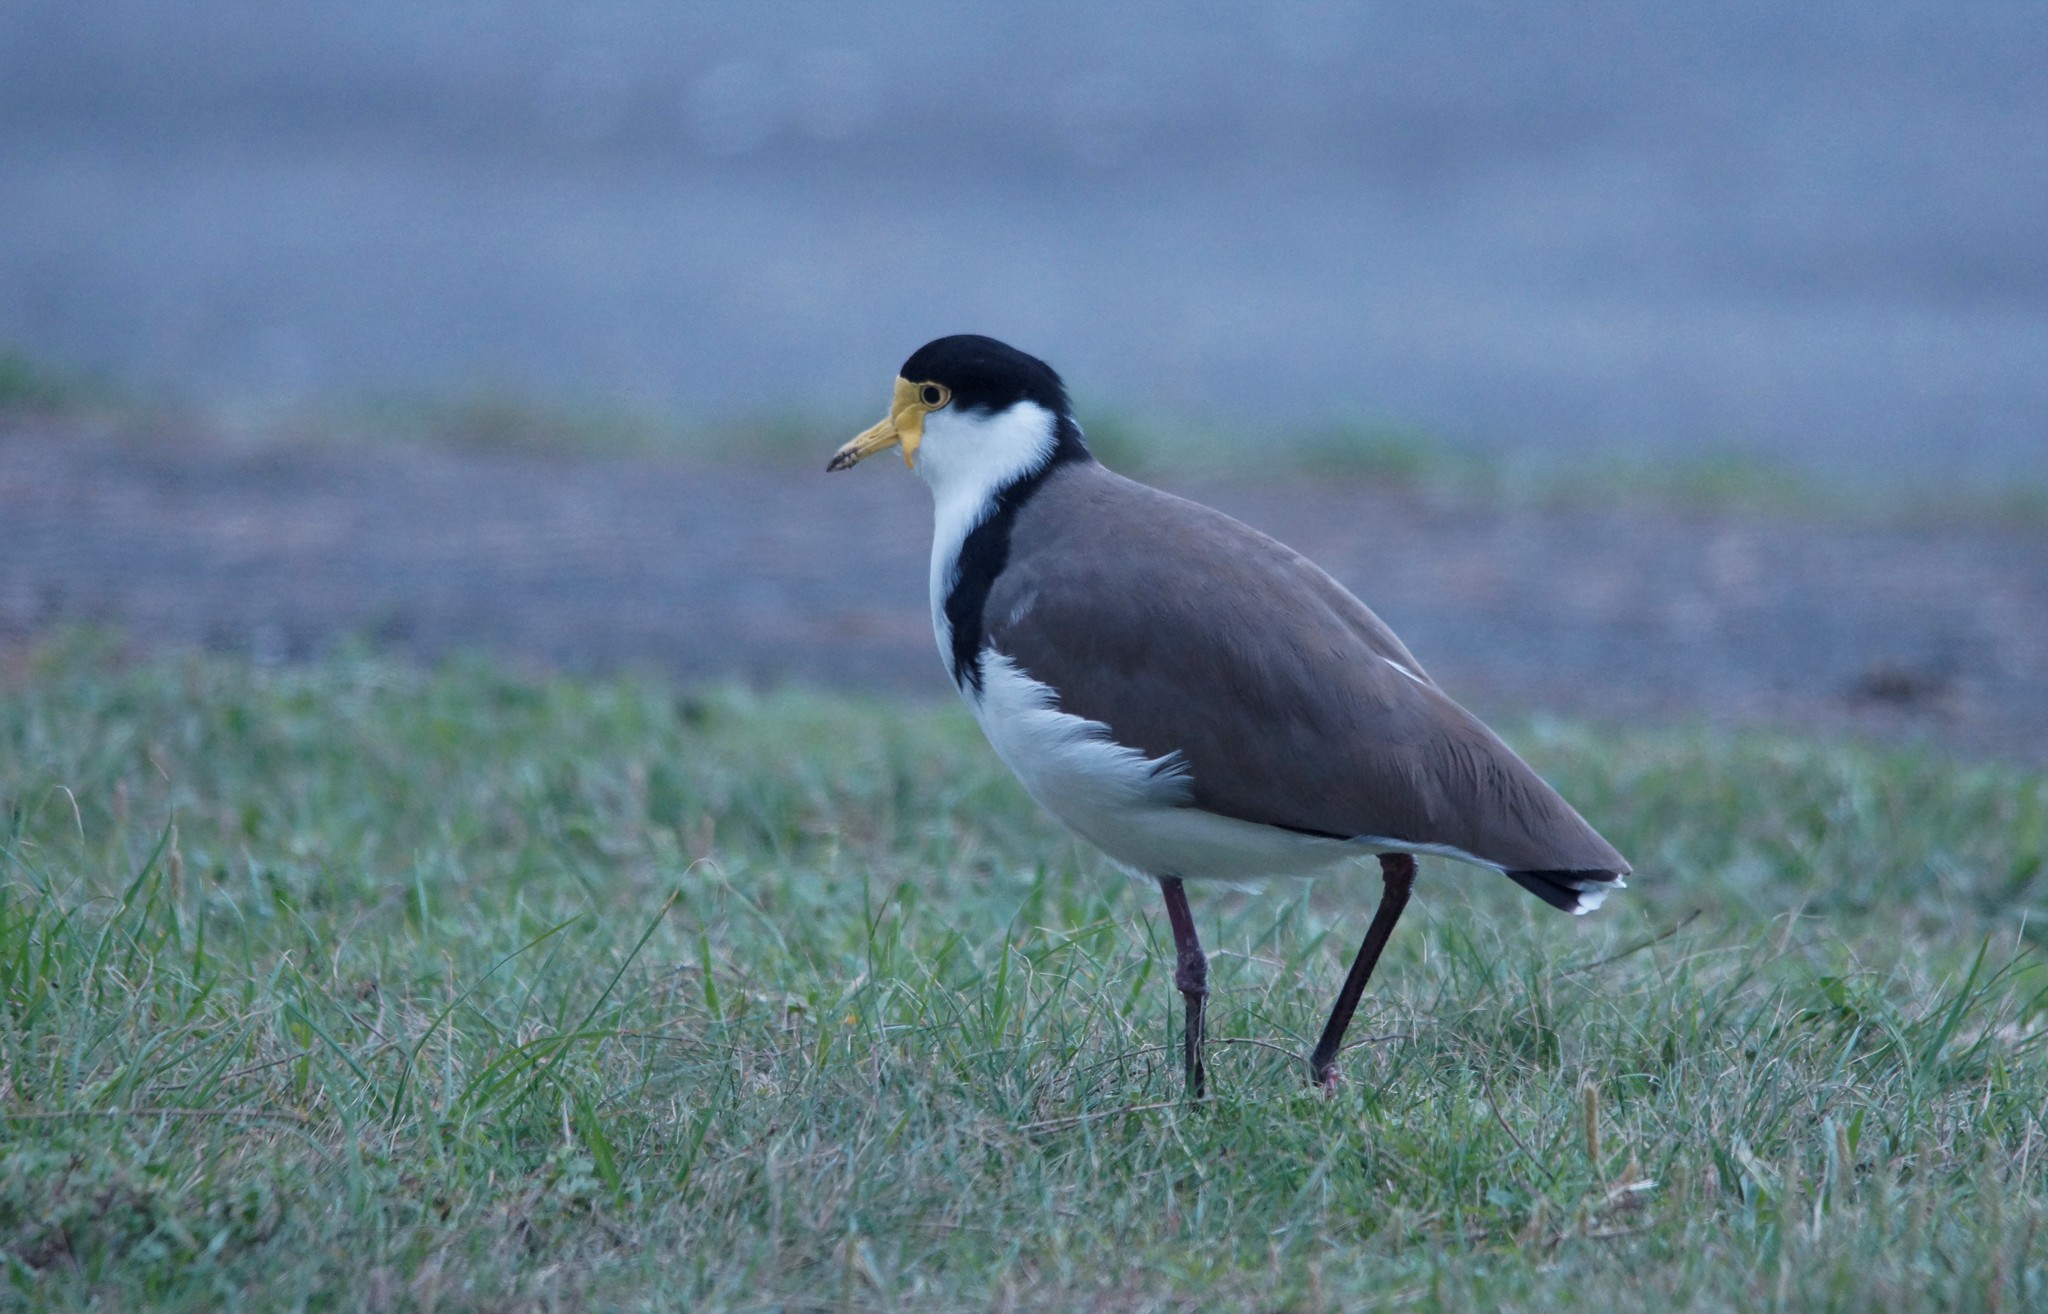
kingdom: Animalia
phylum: Chordata
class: Aves
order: Charadriiformes
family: Charadriidae
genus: Vanellus
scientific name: Vanellus miles
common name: Masked lapwing
